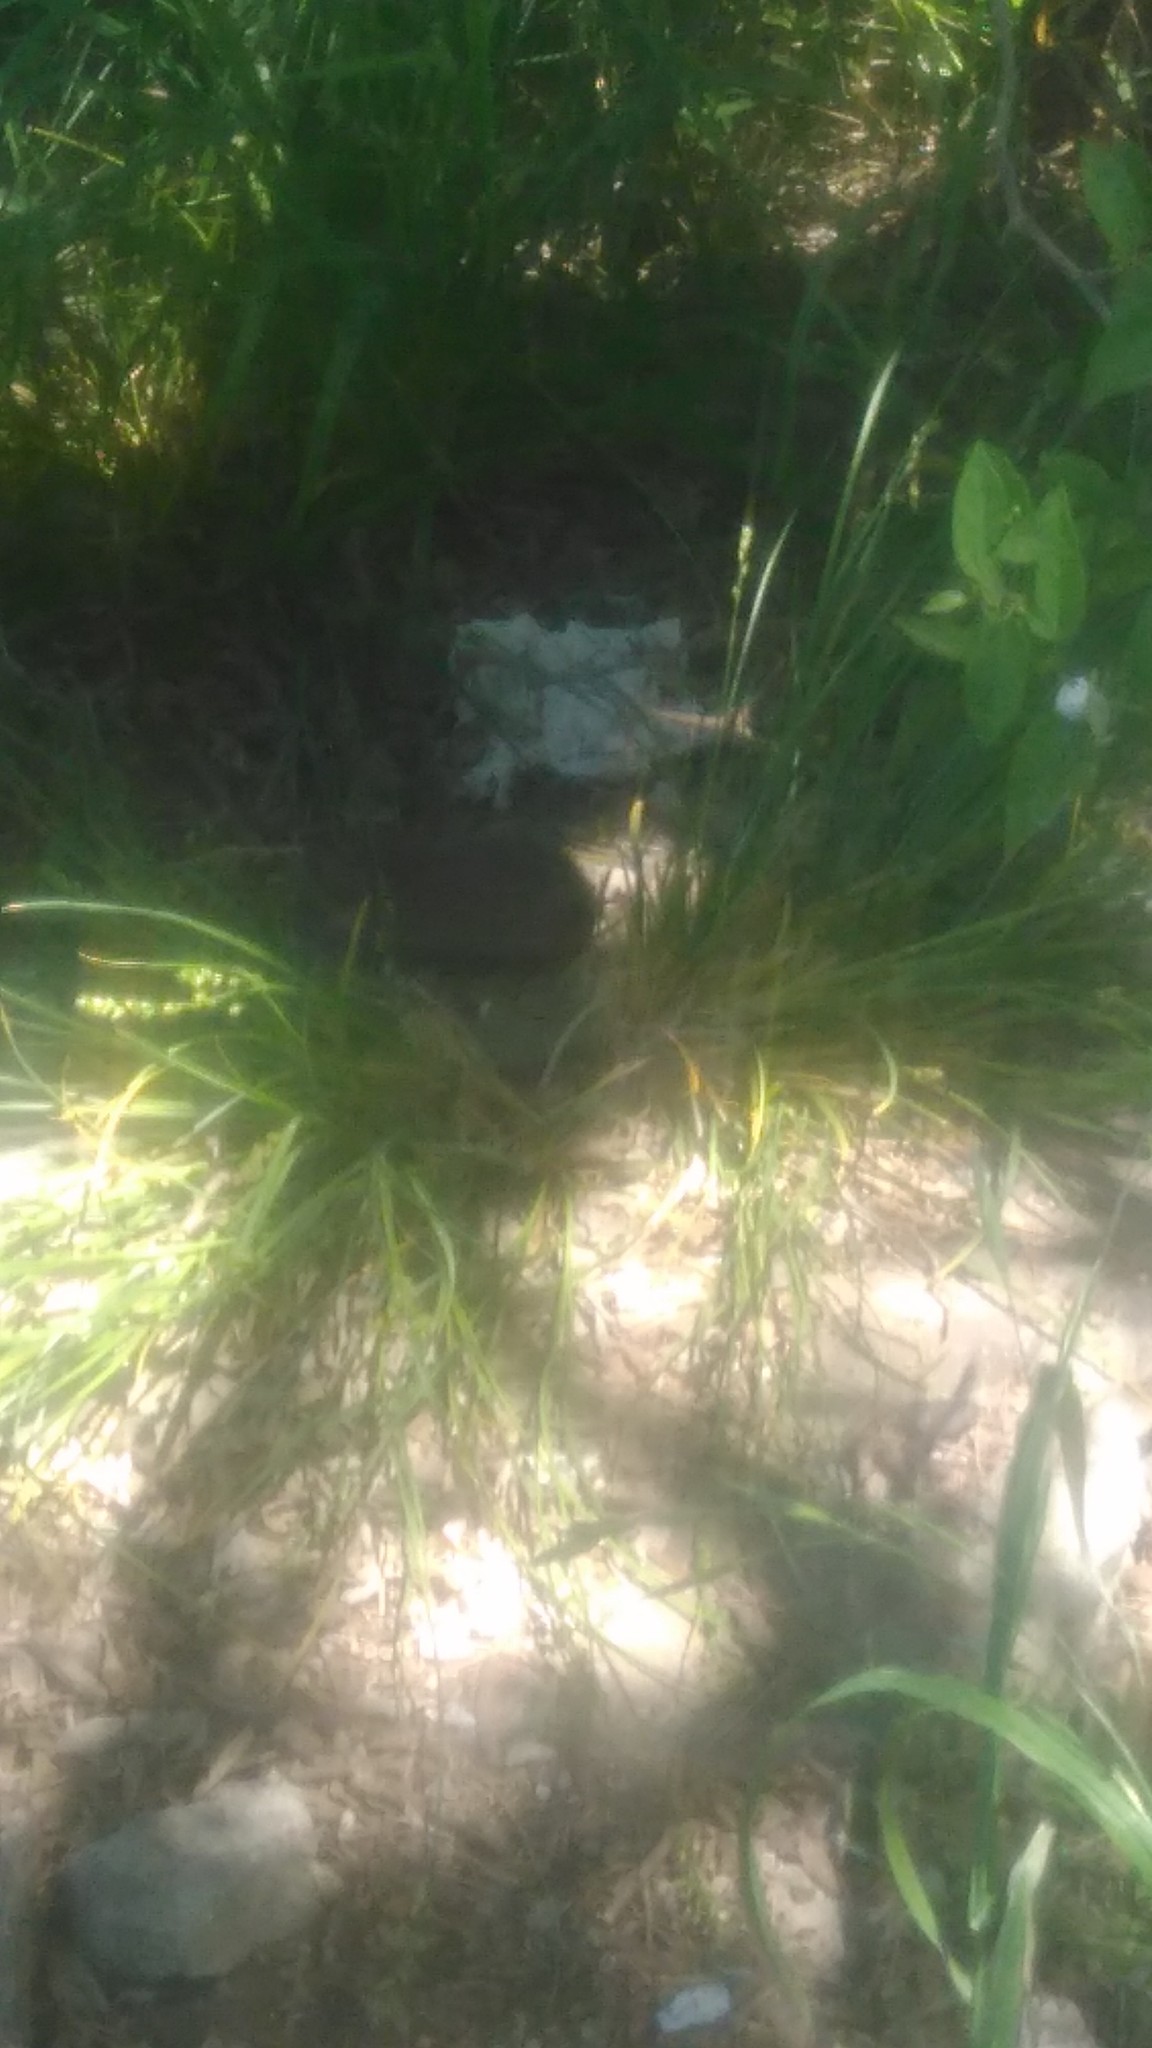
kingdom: Animalia
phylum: Chordata
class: Mammalia
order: Rodentia
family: Cricetidae
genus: Akodon
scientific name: Akodon azarae
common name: Azara's grass mouse
